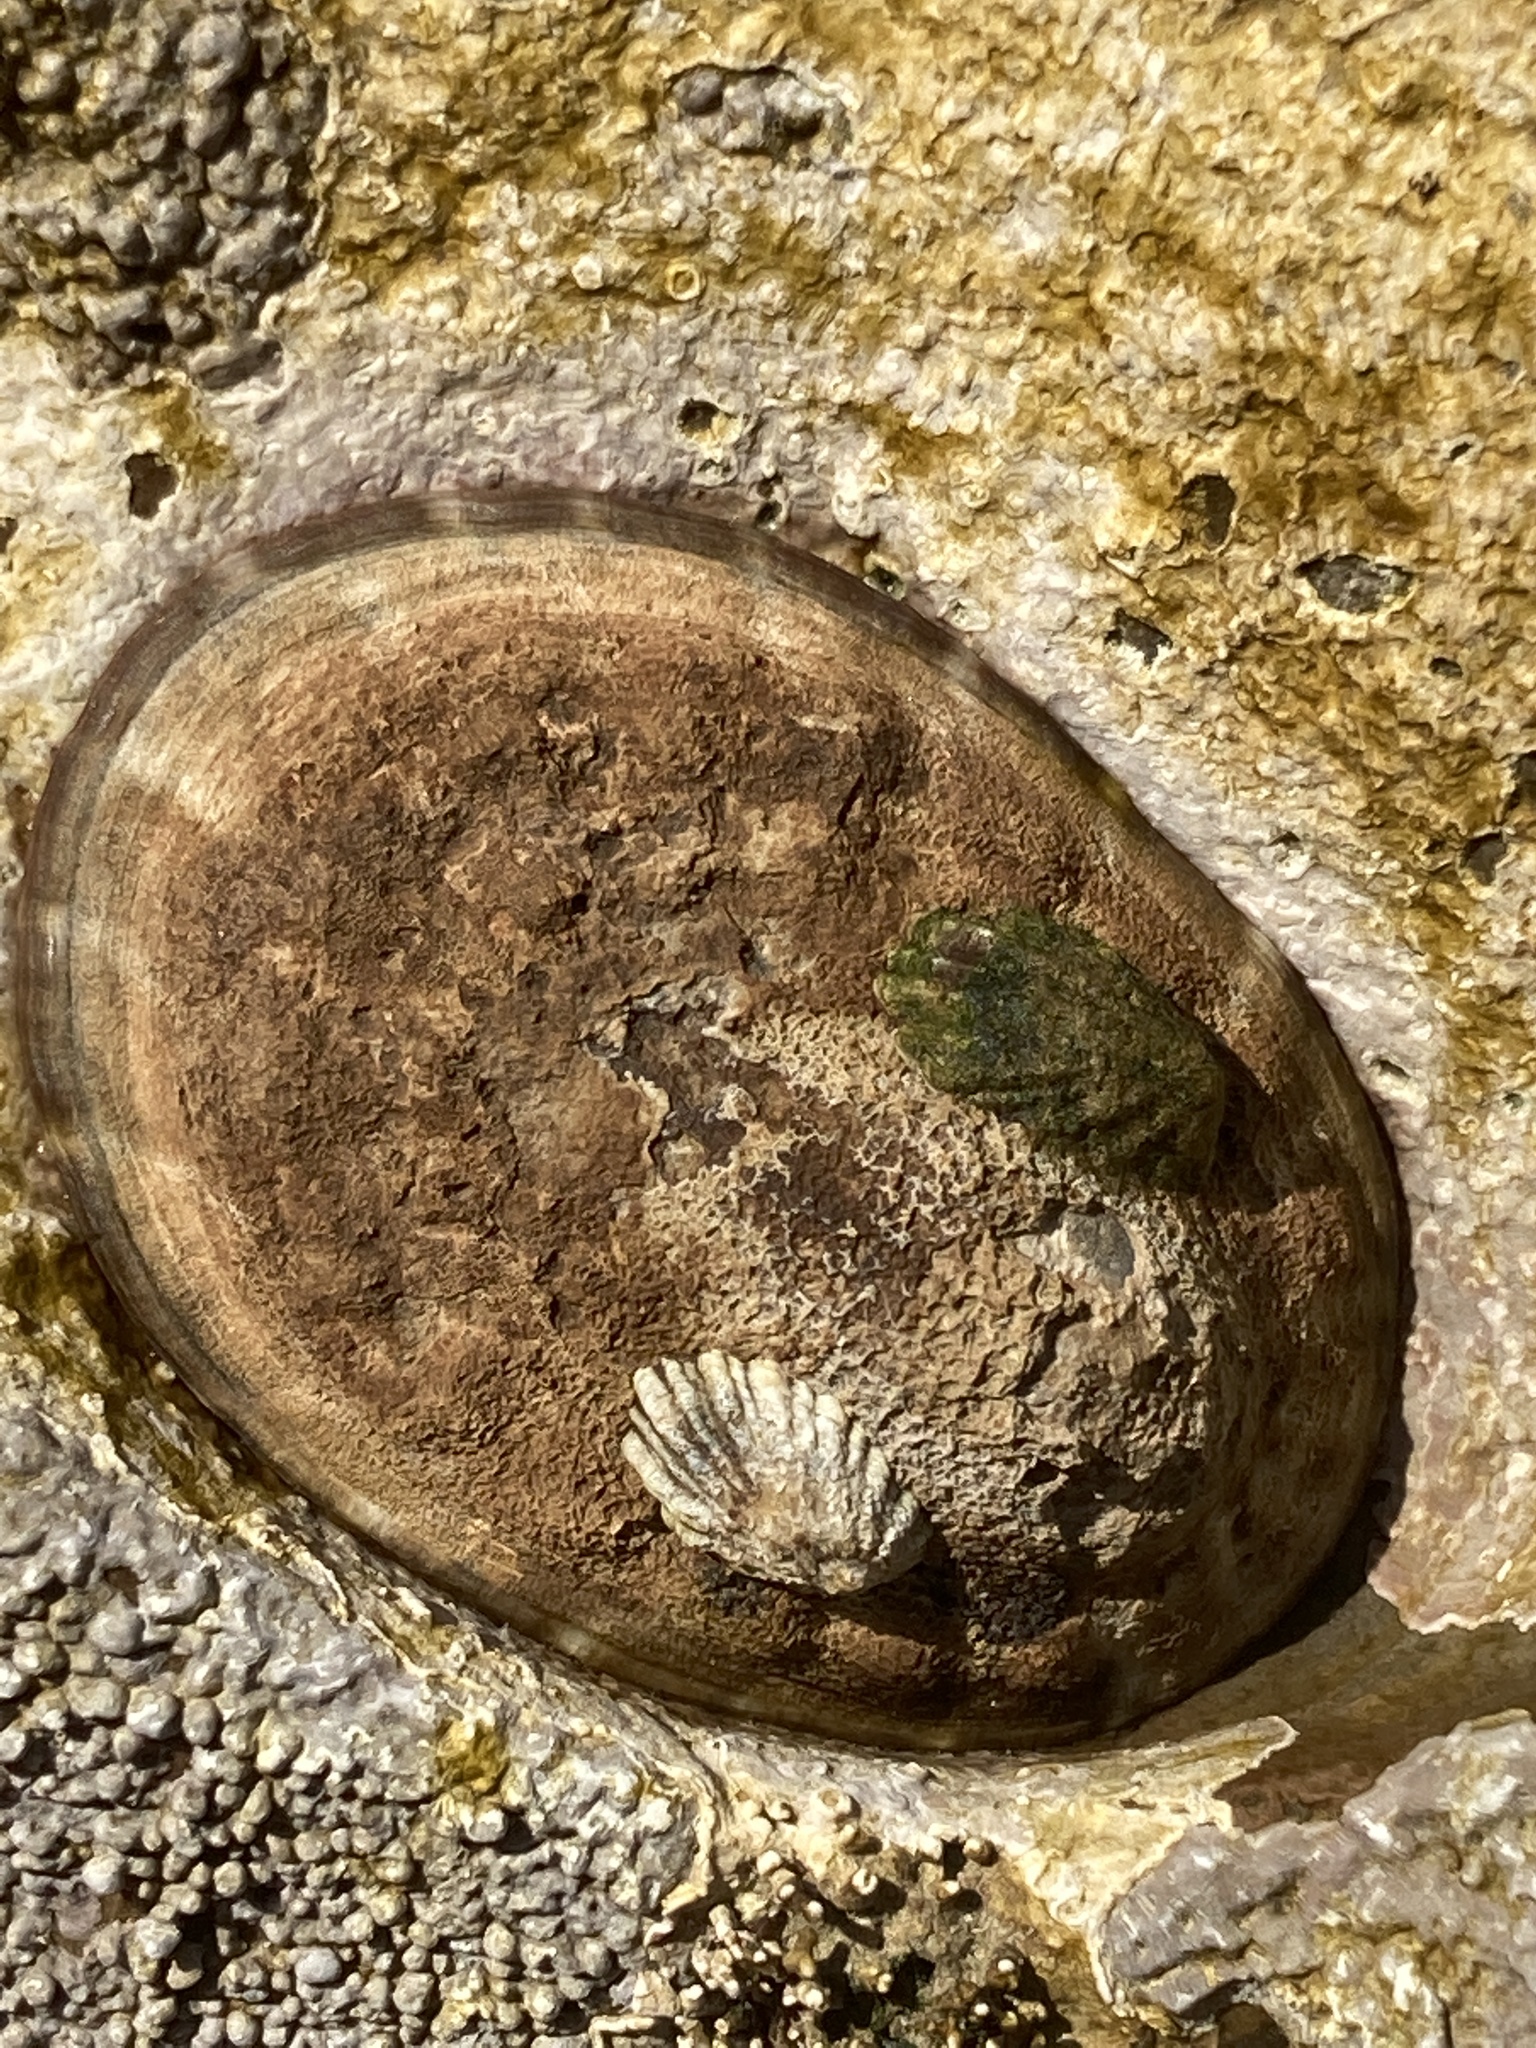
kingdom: Animalia
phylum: Mollusca
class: Gastropoda
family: Lottiidae
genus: Lottia
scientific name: Lottia gigantea
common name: Owl limpet
